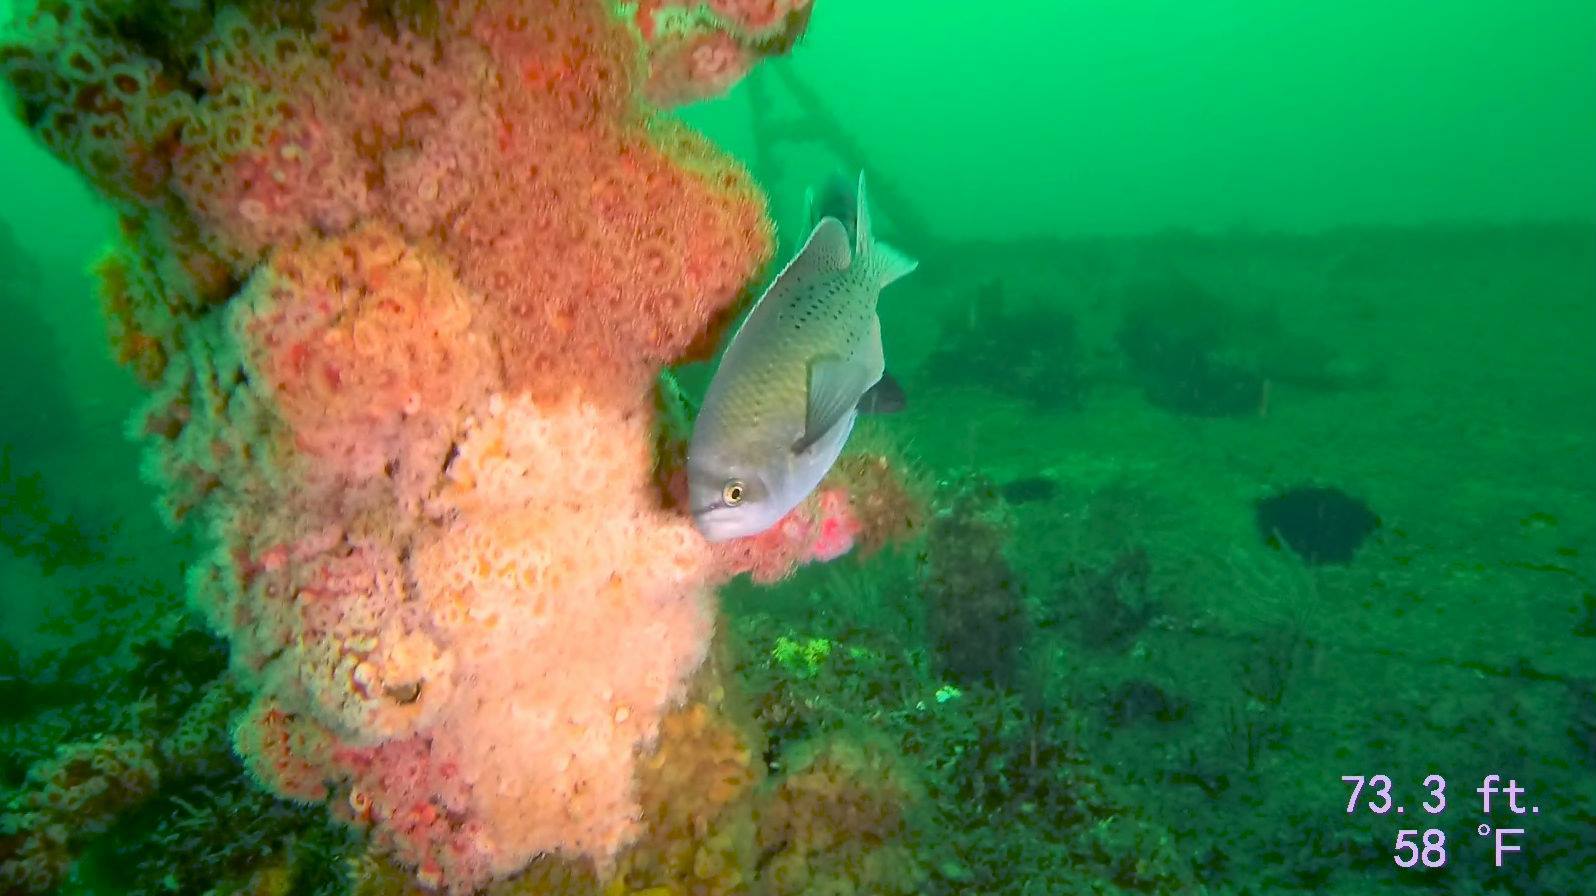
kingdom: Animalia
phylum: Chordata
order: Perciformes
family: Pomacentridae
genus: Chromis
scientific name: Chromis punctipinnis
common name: Blacksmith
